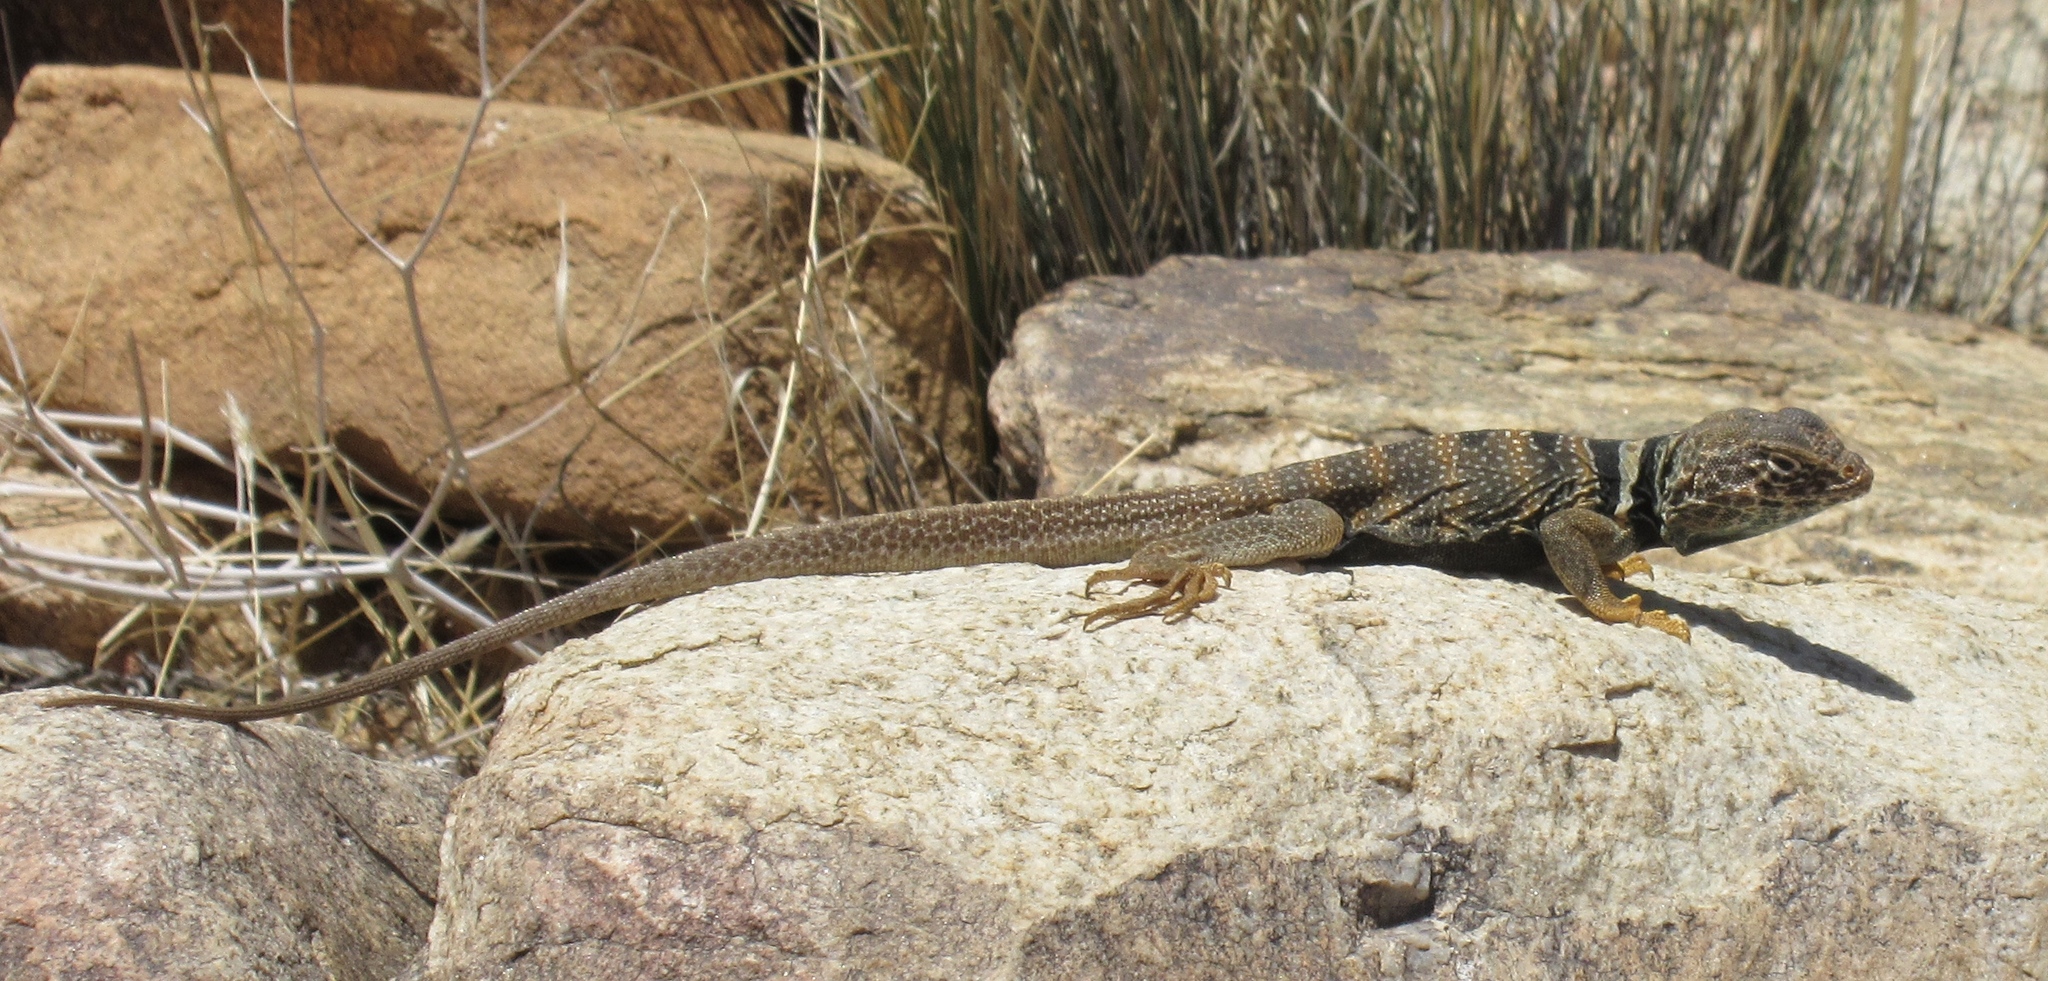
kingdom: Animalia
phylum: Chordata
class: Squamata
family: Crotaphytidae
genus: Crotaphytus
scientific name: Crotaphytus bicinctores
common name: Mojave black-collared lizard
